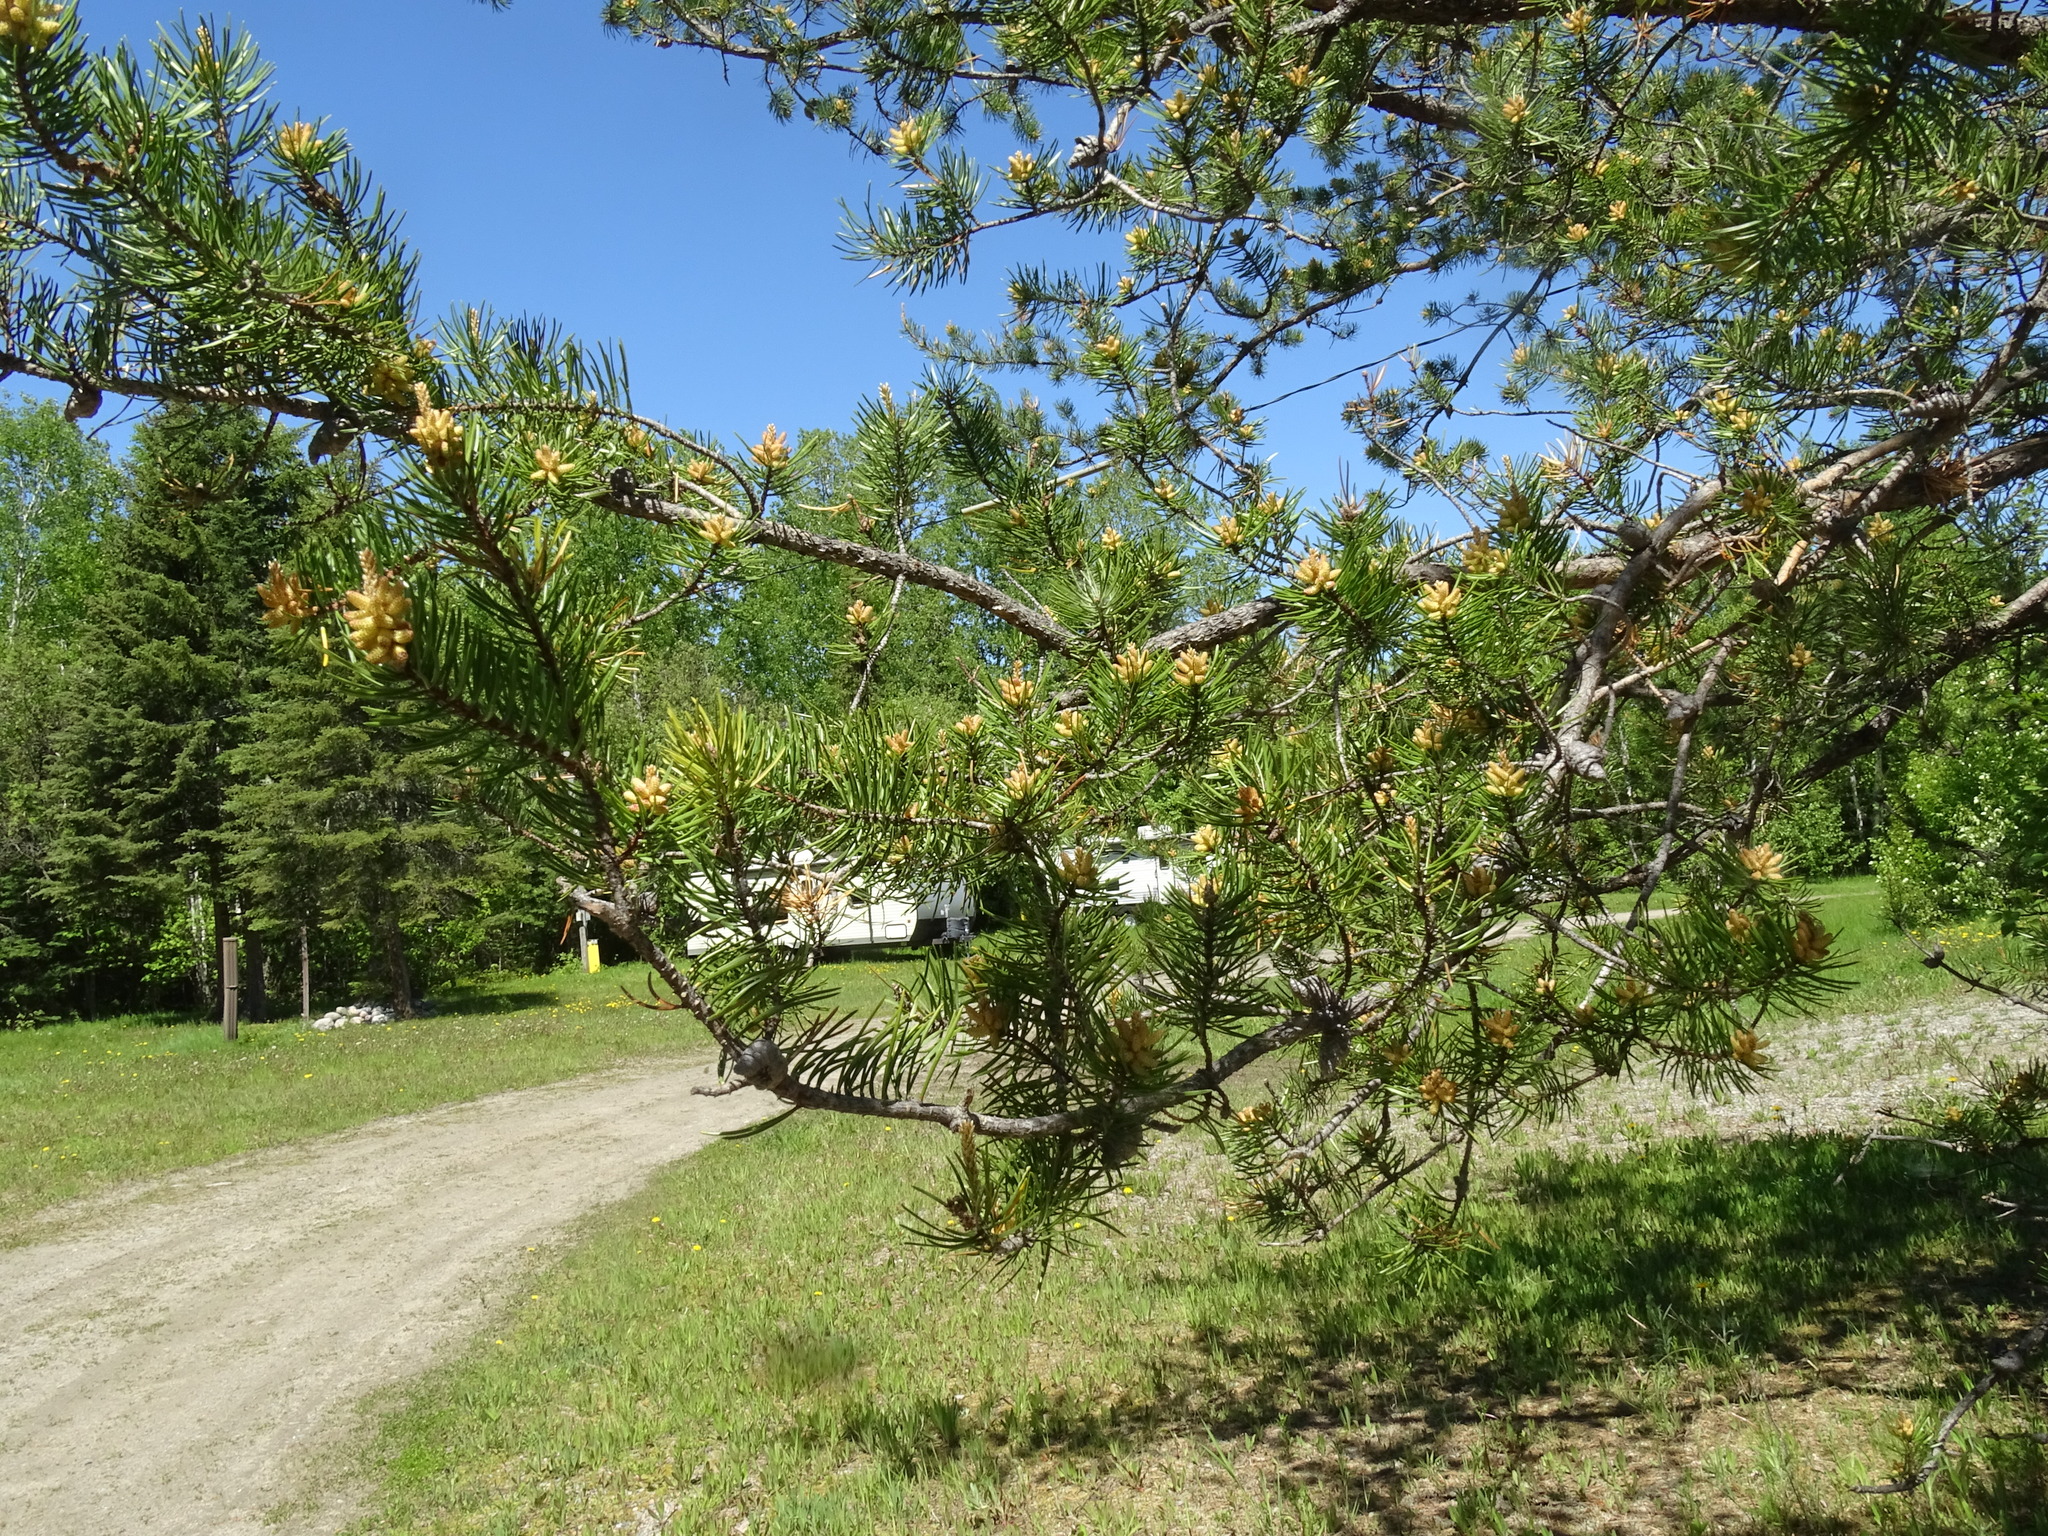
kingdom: Plantae
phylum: Tracheophyta
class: Pinopsida
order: Pinales
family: Pinaceae
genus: Pinus
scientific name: Pinus banksiana
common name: Jack pine
